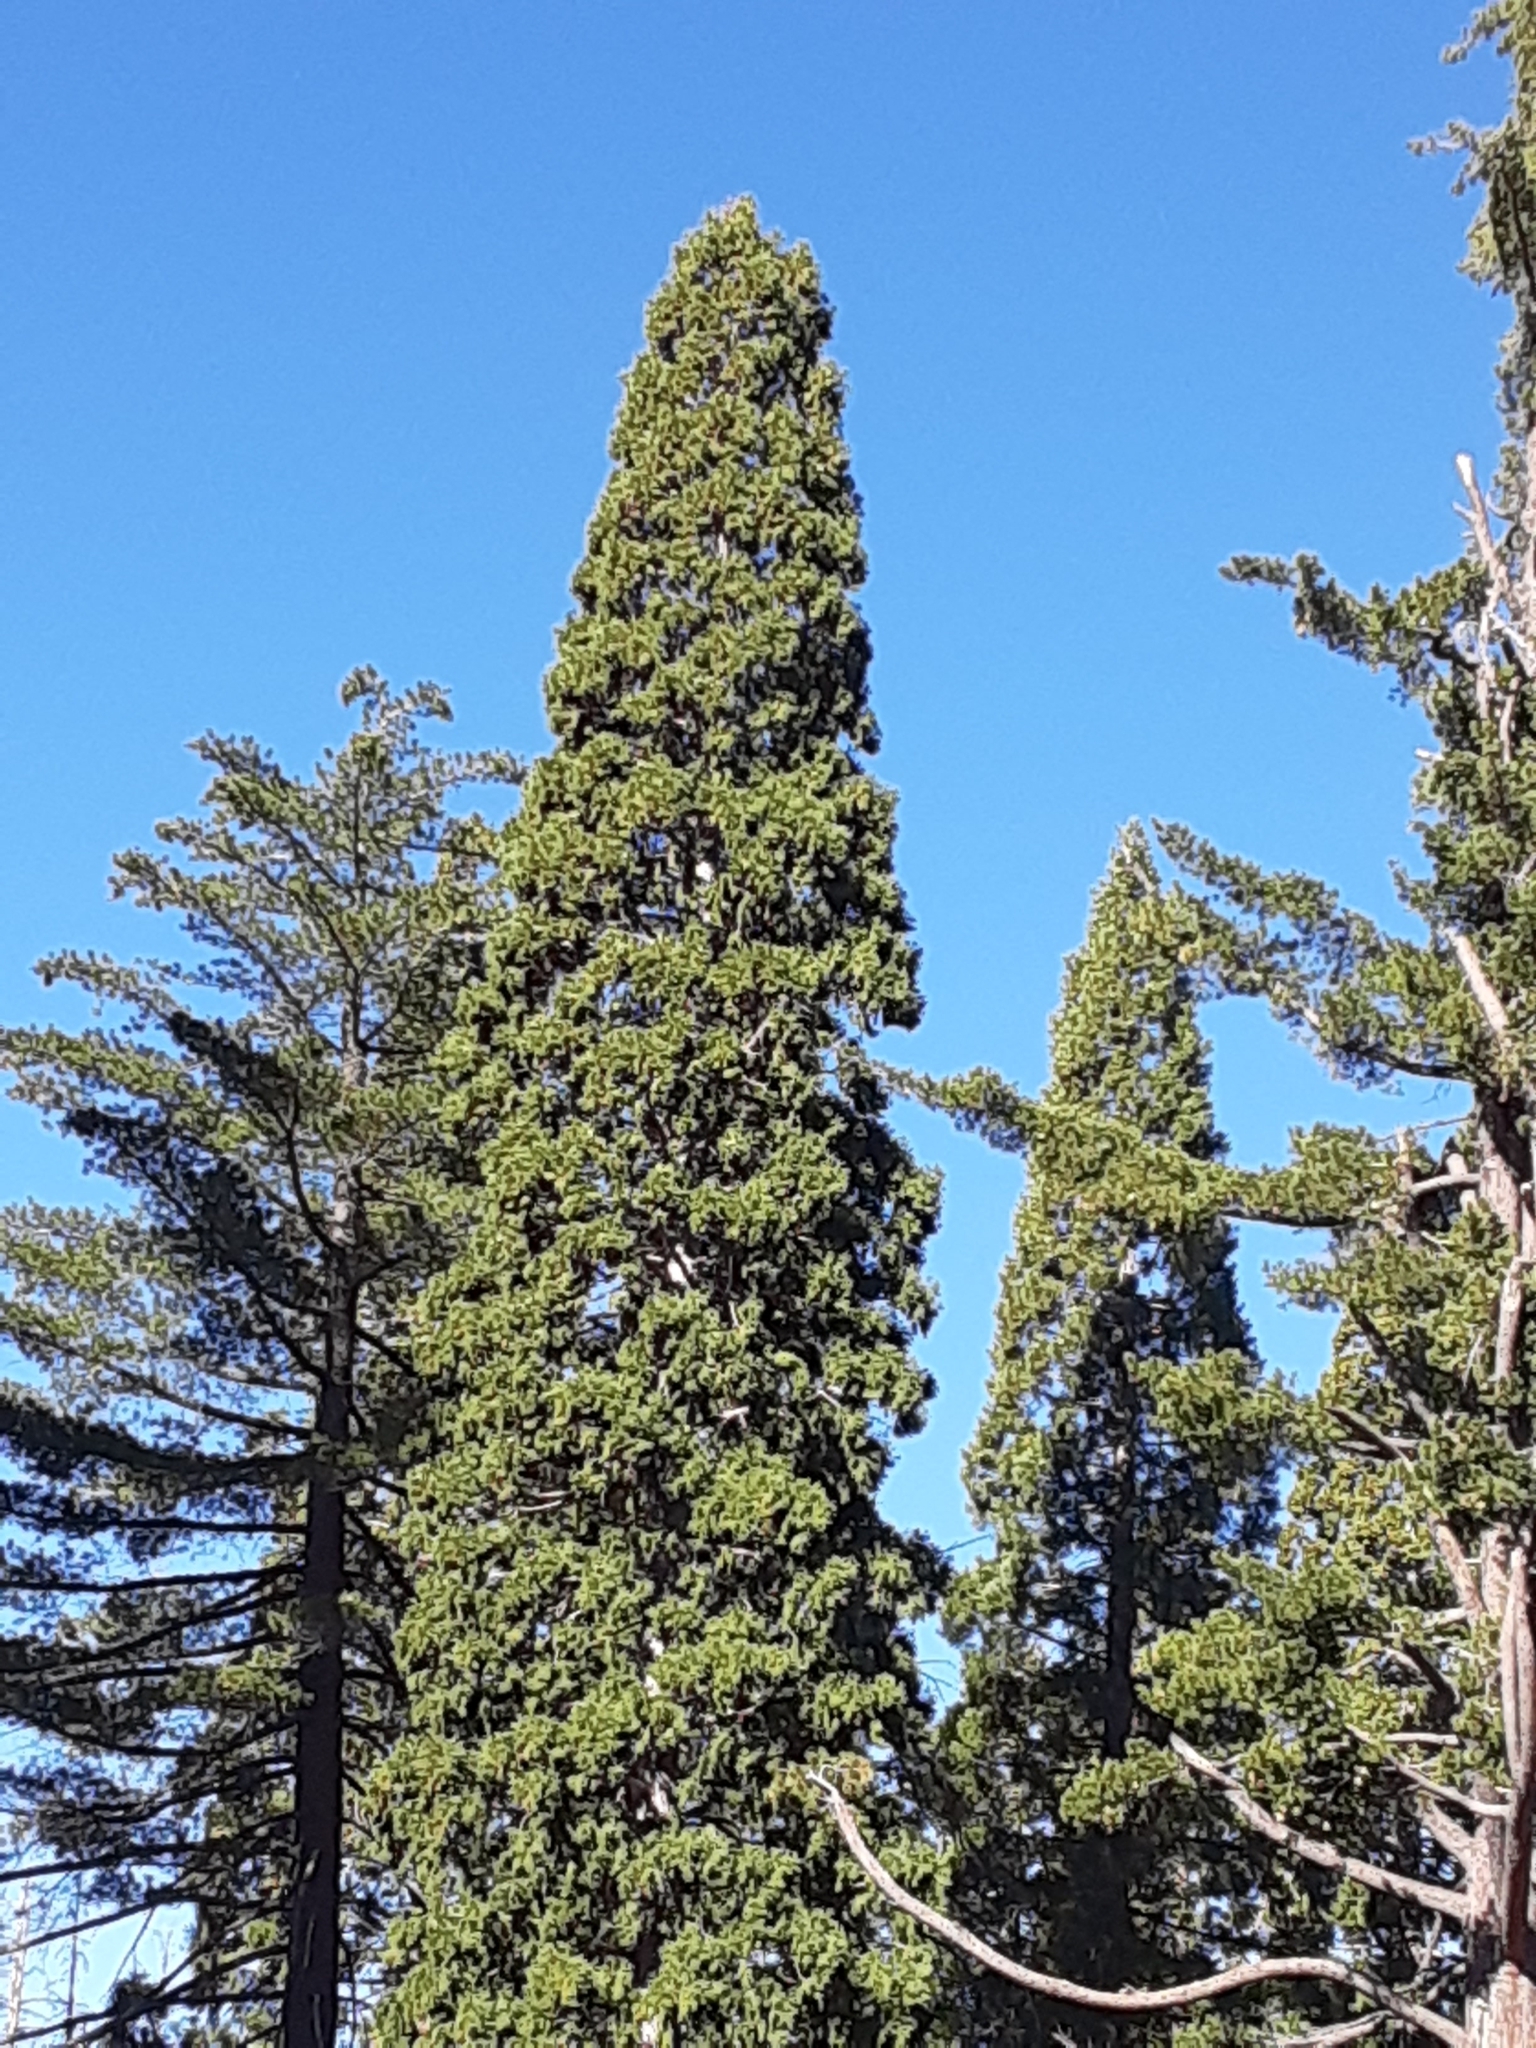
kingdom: Plantae
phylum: Tracheophyta
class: Pinopsida
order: Pinales
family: Cupressaceae
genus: Sequoiadendron
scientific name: Sequoiadendron giganteum
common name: Wellingtonia
